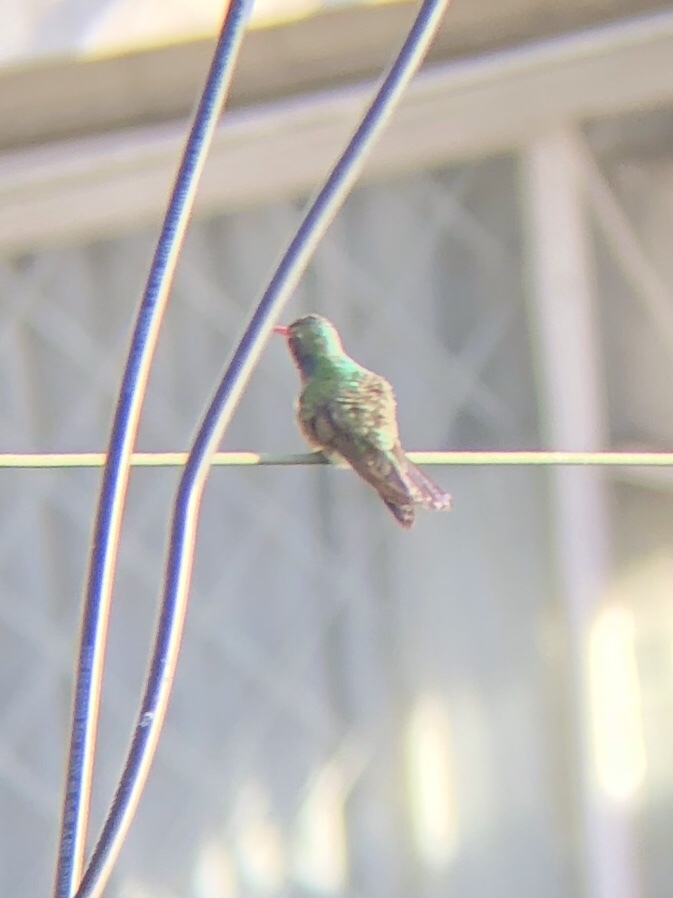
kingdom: Animalia
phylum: Chordata
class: Aves
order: Apodiformes
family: Trochilidae
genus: Cynanthus
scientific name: Cynanthus latirostris
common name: Broad-billed hummingbird
